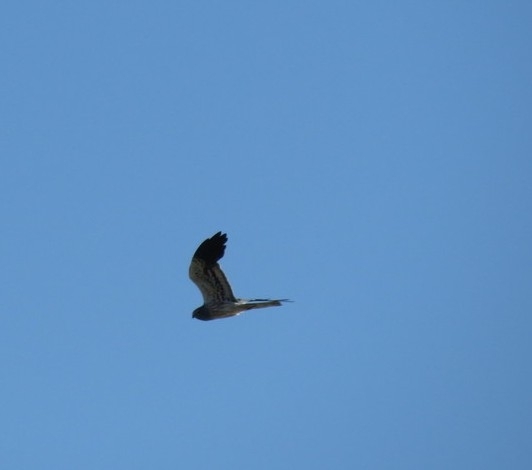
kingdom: Animalia
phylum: Chordata
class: Aves
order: Accipitriformes
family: Accipitridae
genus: Circus
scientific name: Circus pygargus
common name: Montagu's harrier
